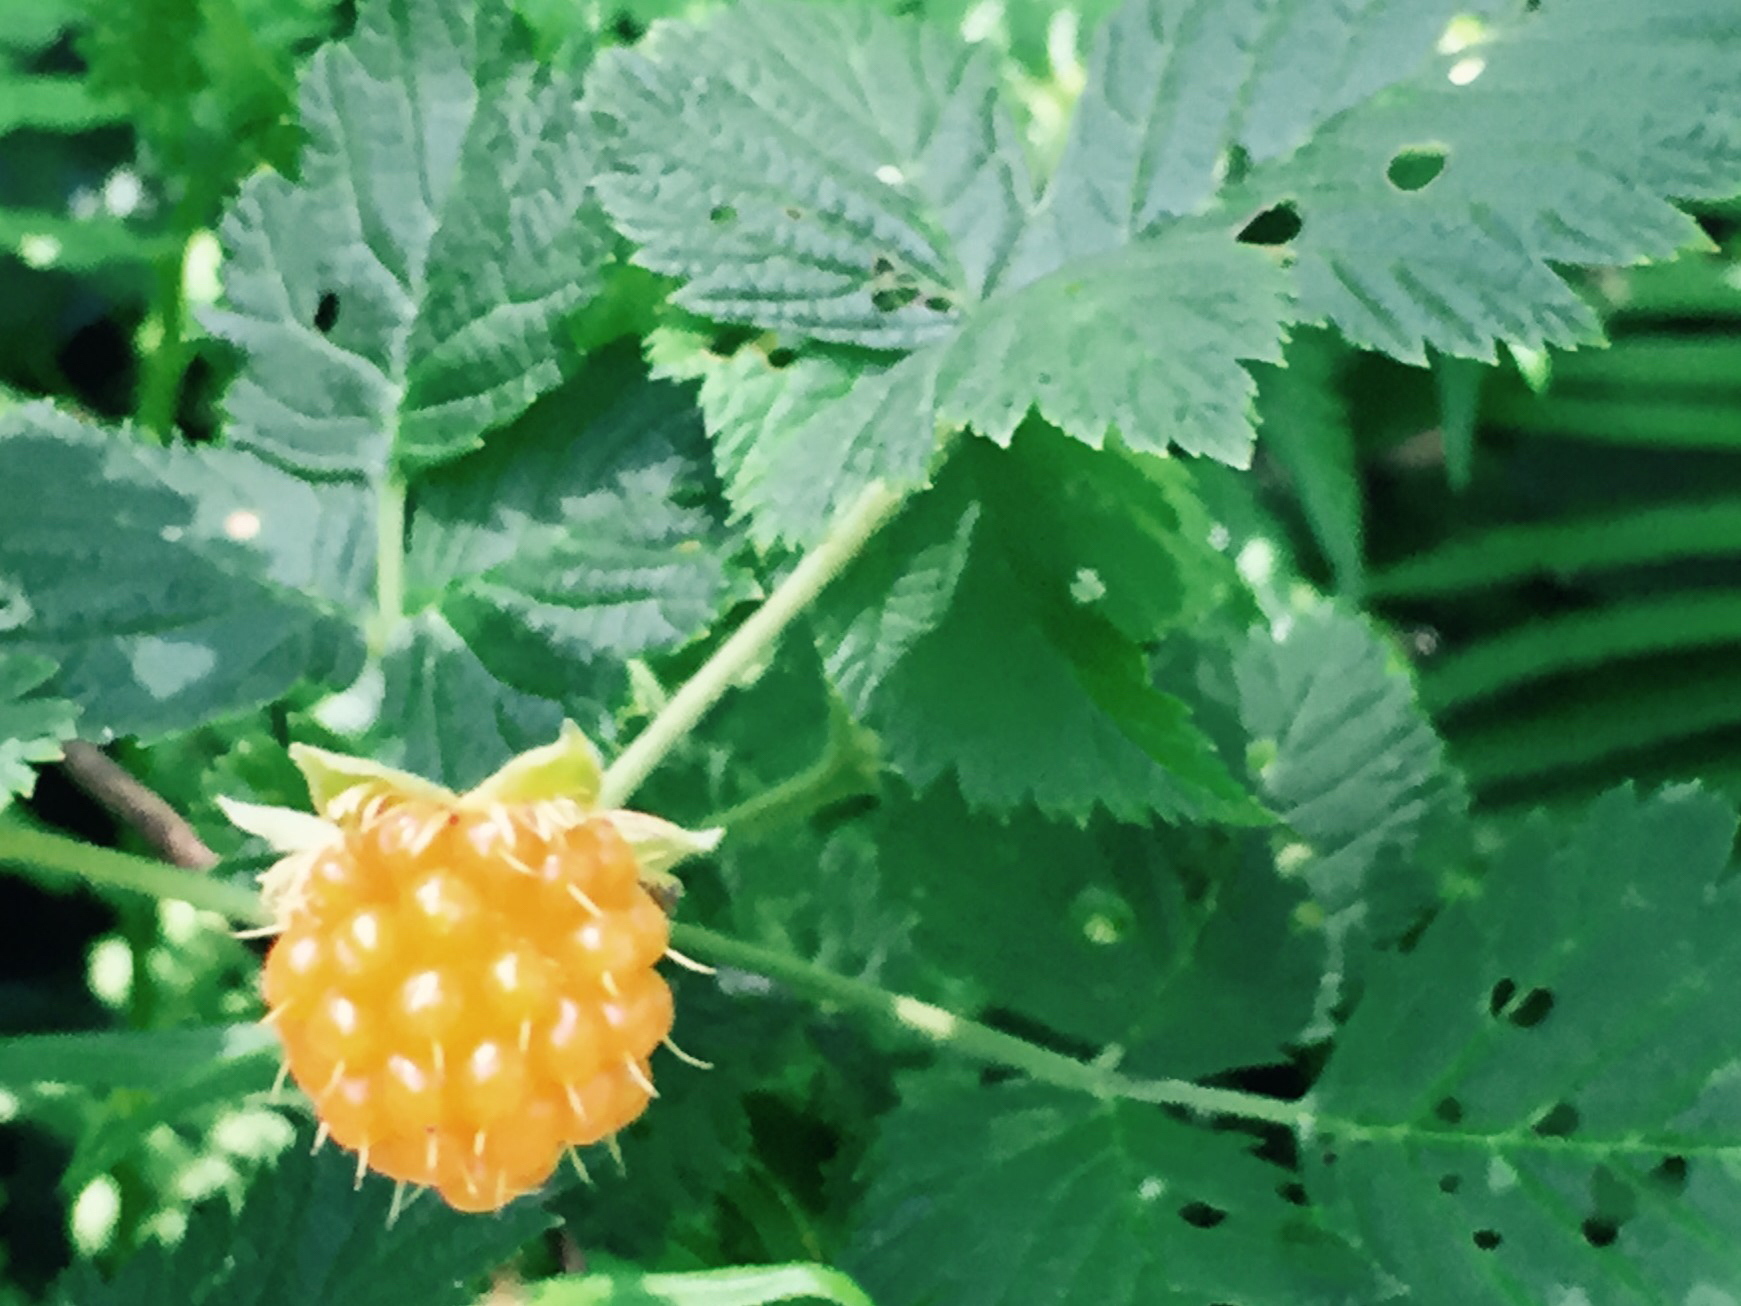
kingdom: Plantae
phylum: Tracheophyta
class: Magnoliopsida
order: Rosales
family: Rosaceae
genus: Rubus
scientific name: Rubus spectabilis
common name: Salmonberry
